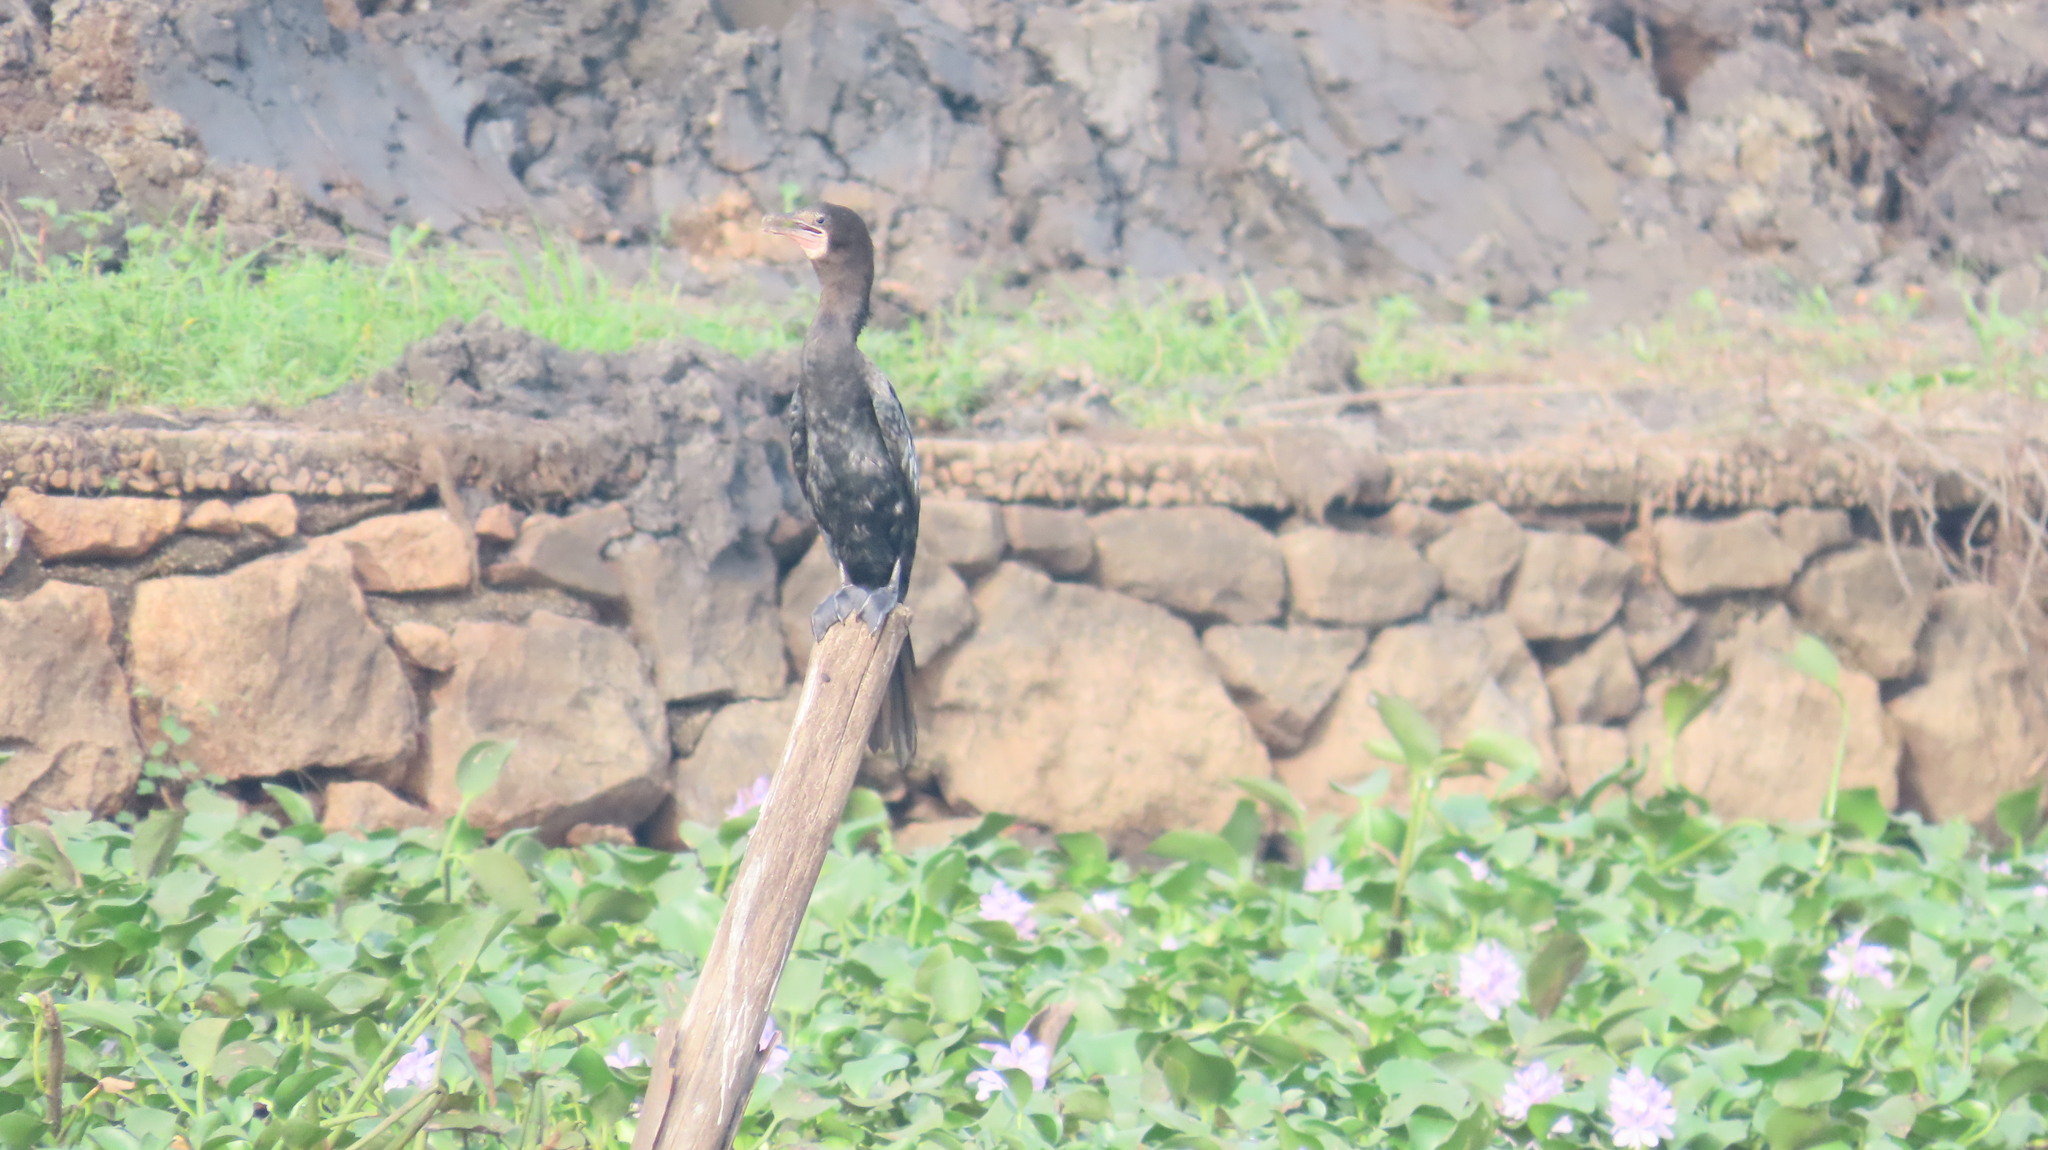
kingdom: Animalia
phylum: Chordata
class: Aves
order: Suliformes
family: Phalacrocoracidae
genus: Microcarbo
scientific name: Microcarbo niger
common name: Little cormorant
